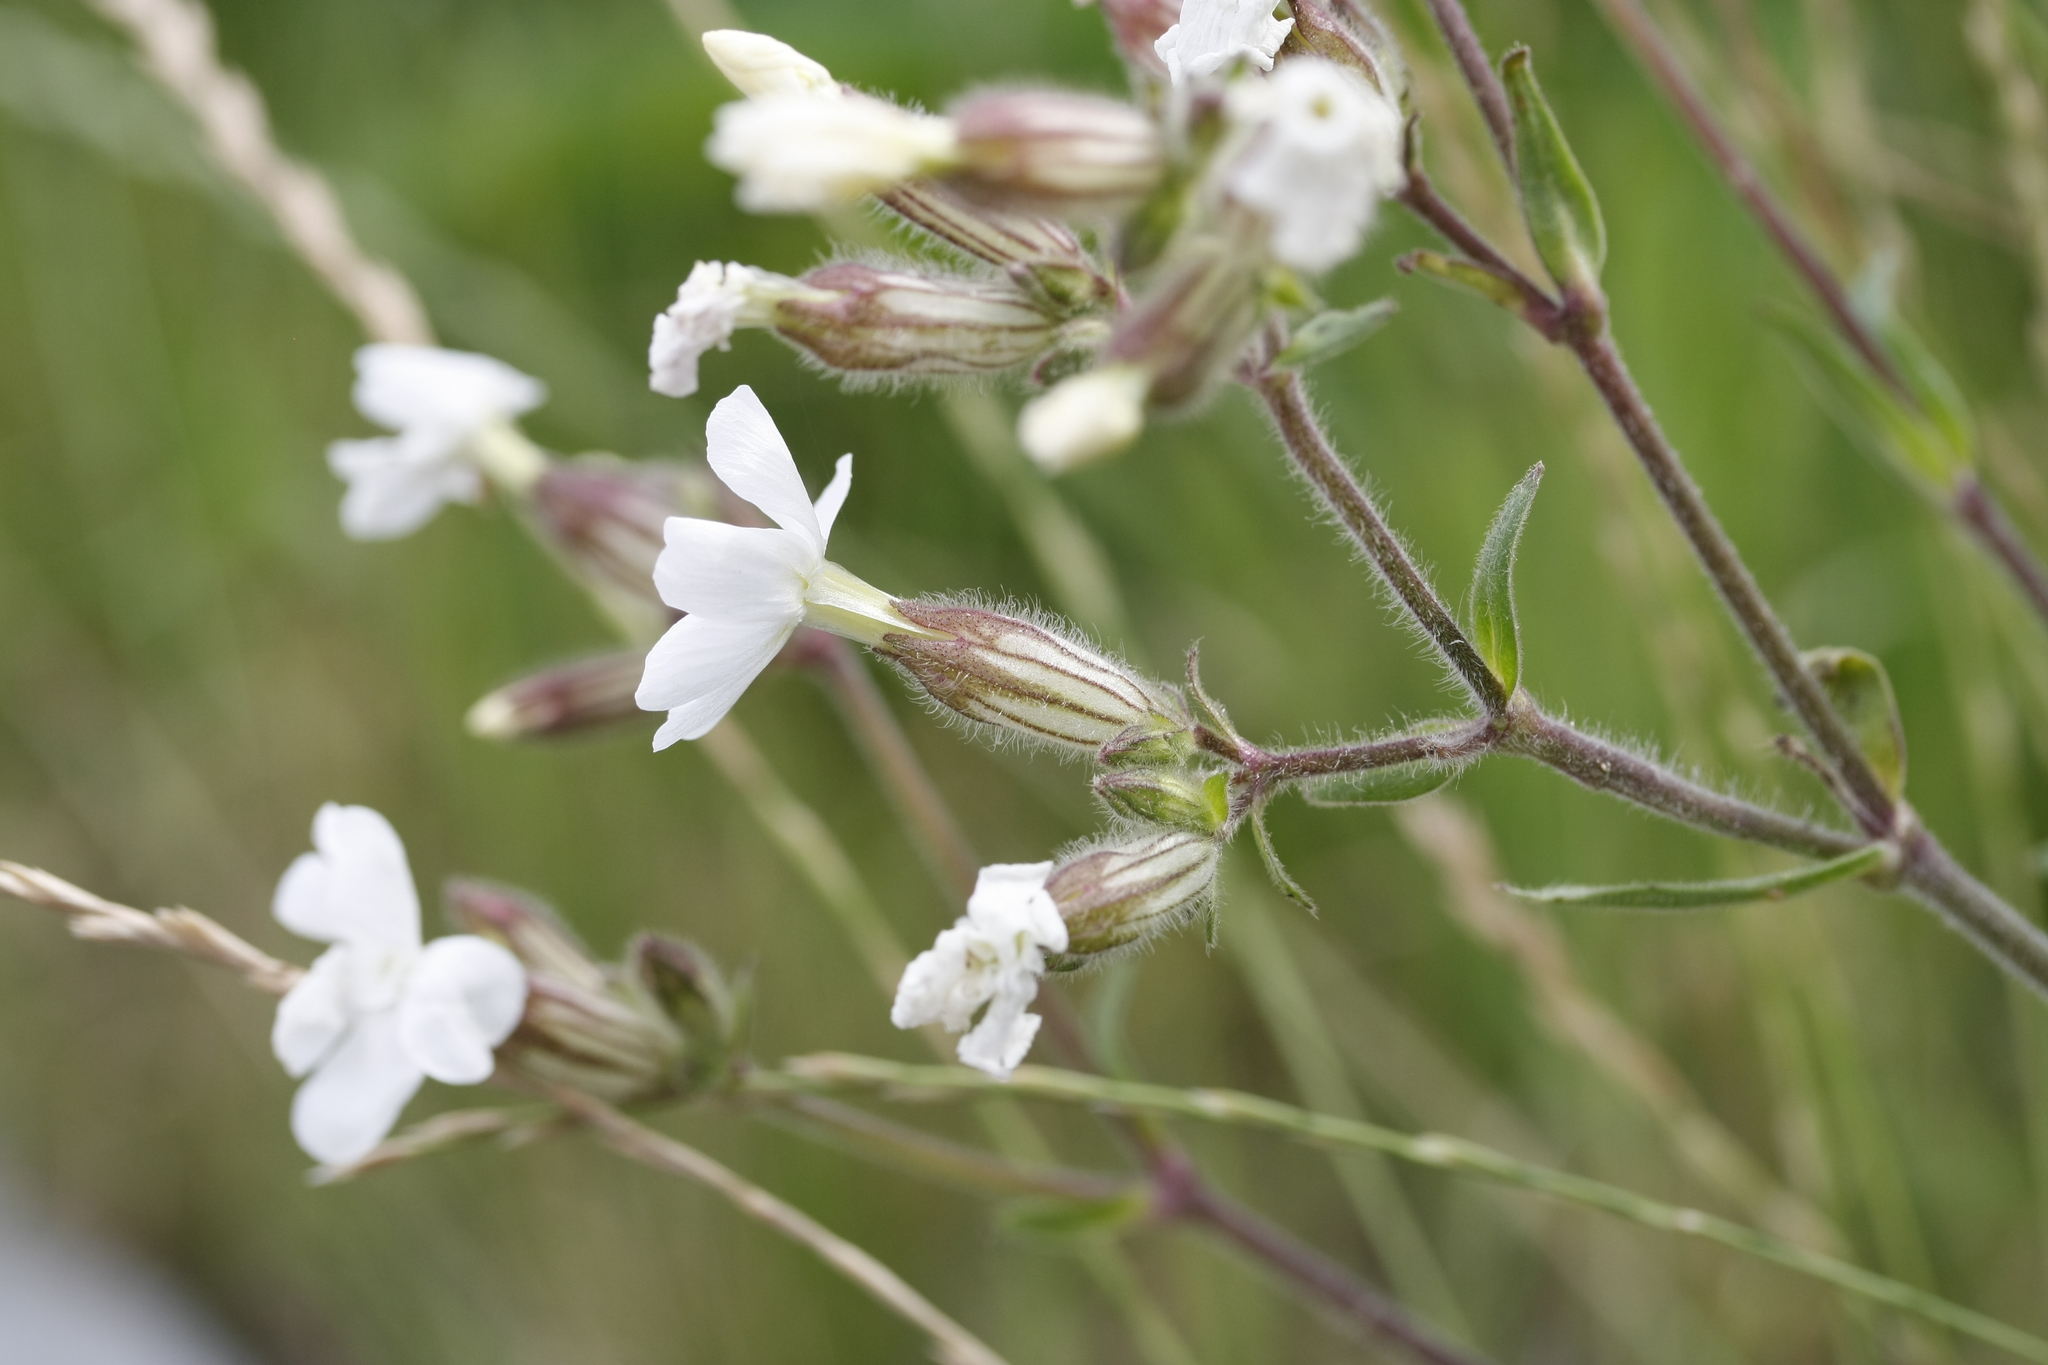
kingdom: Plantae
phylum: Tracheophyta
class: Magnoliopsida
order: Caryophyllales
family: Caryophyllaceae
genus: Silene
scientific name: Silene latifolia
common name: White campion
